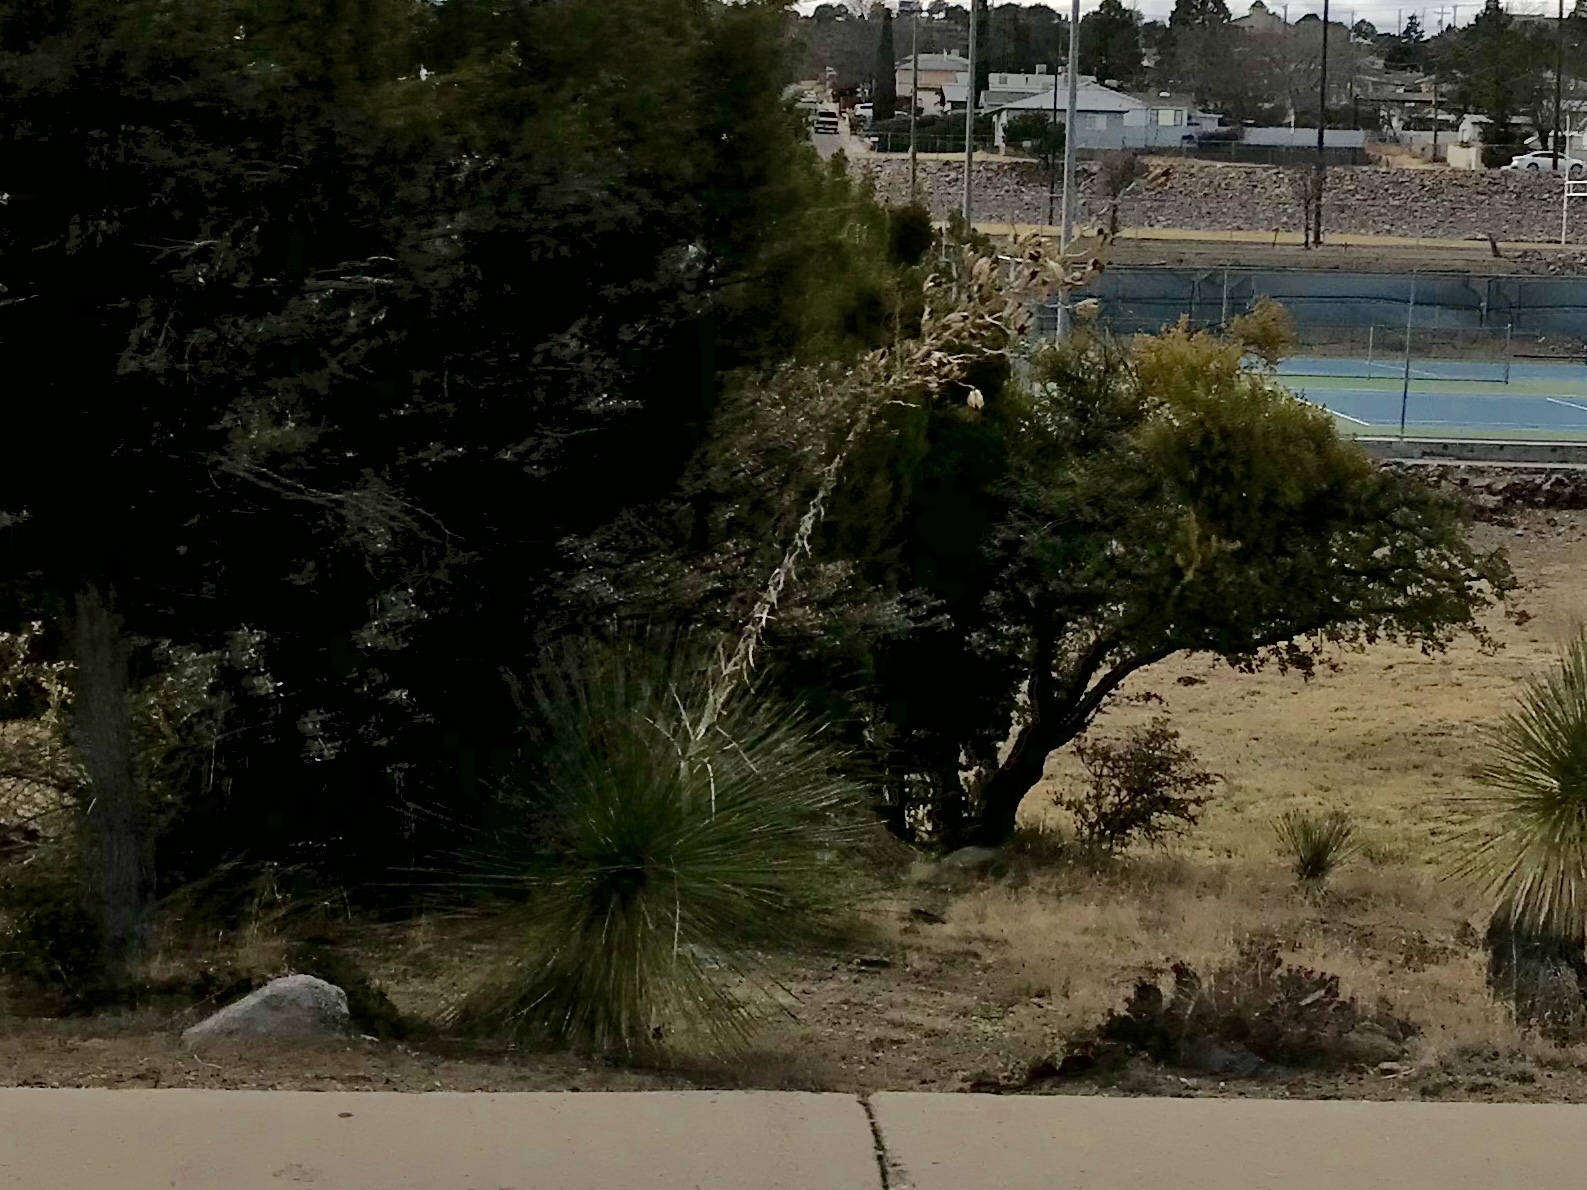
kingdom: Plantae
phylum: Tracheophyta
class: Liliopsida
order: Asparagales
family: Asparagaceae
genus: Yucca
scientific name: Yucca elata
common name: Palmella
